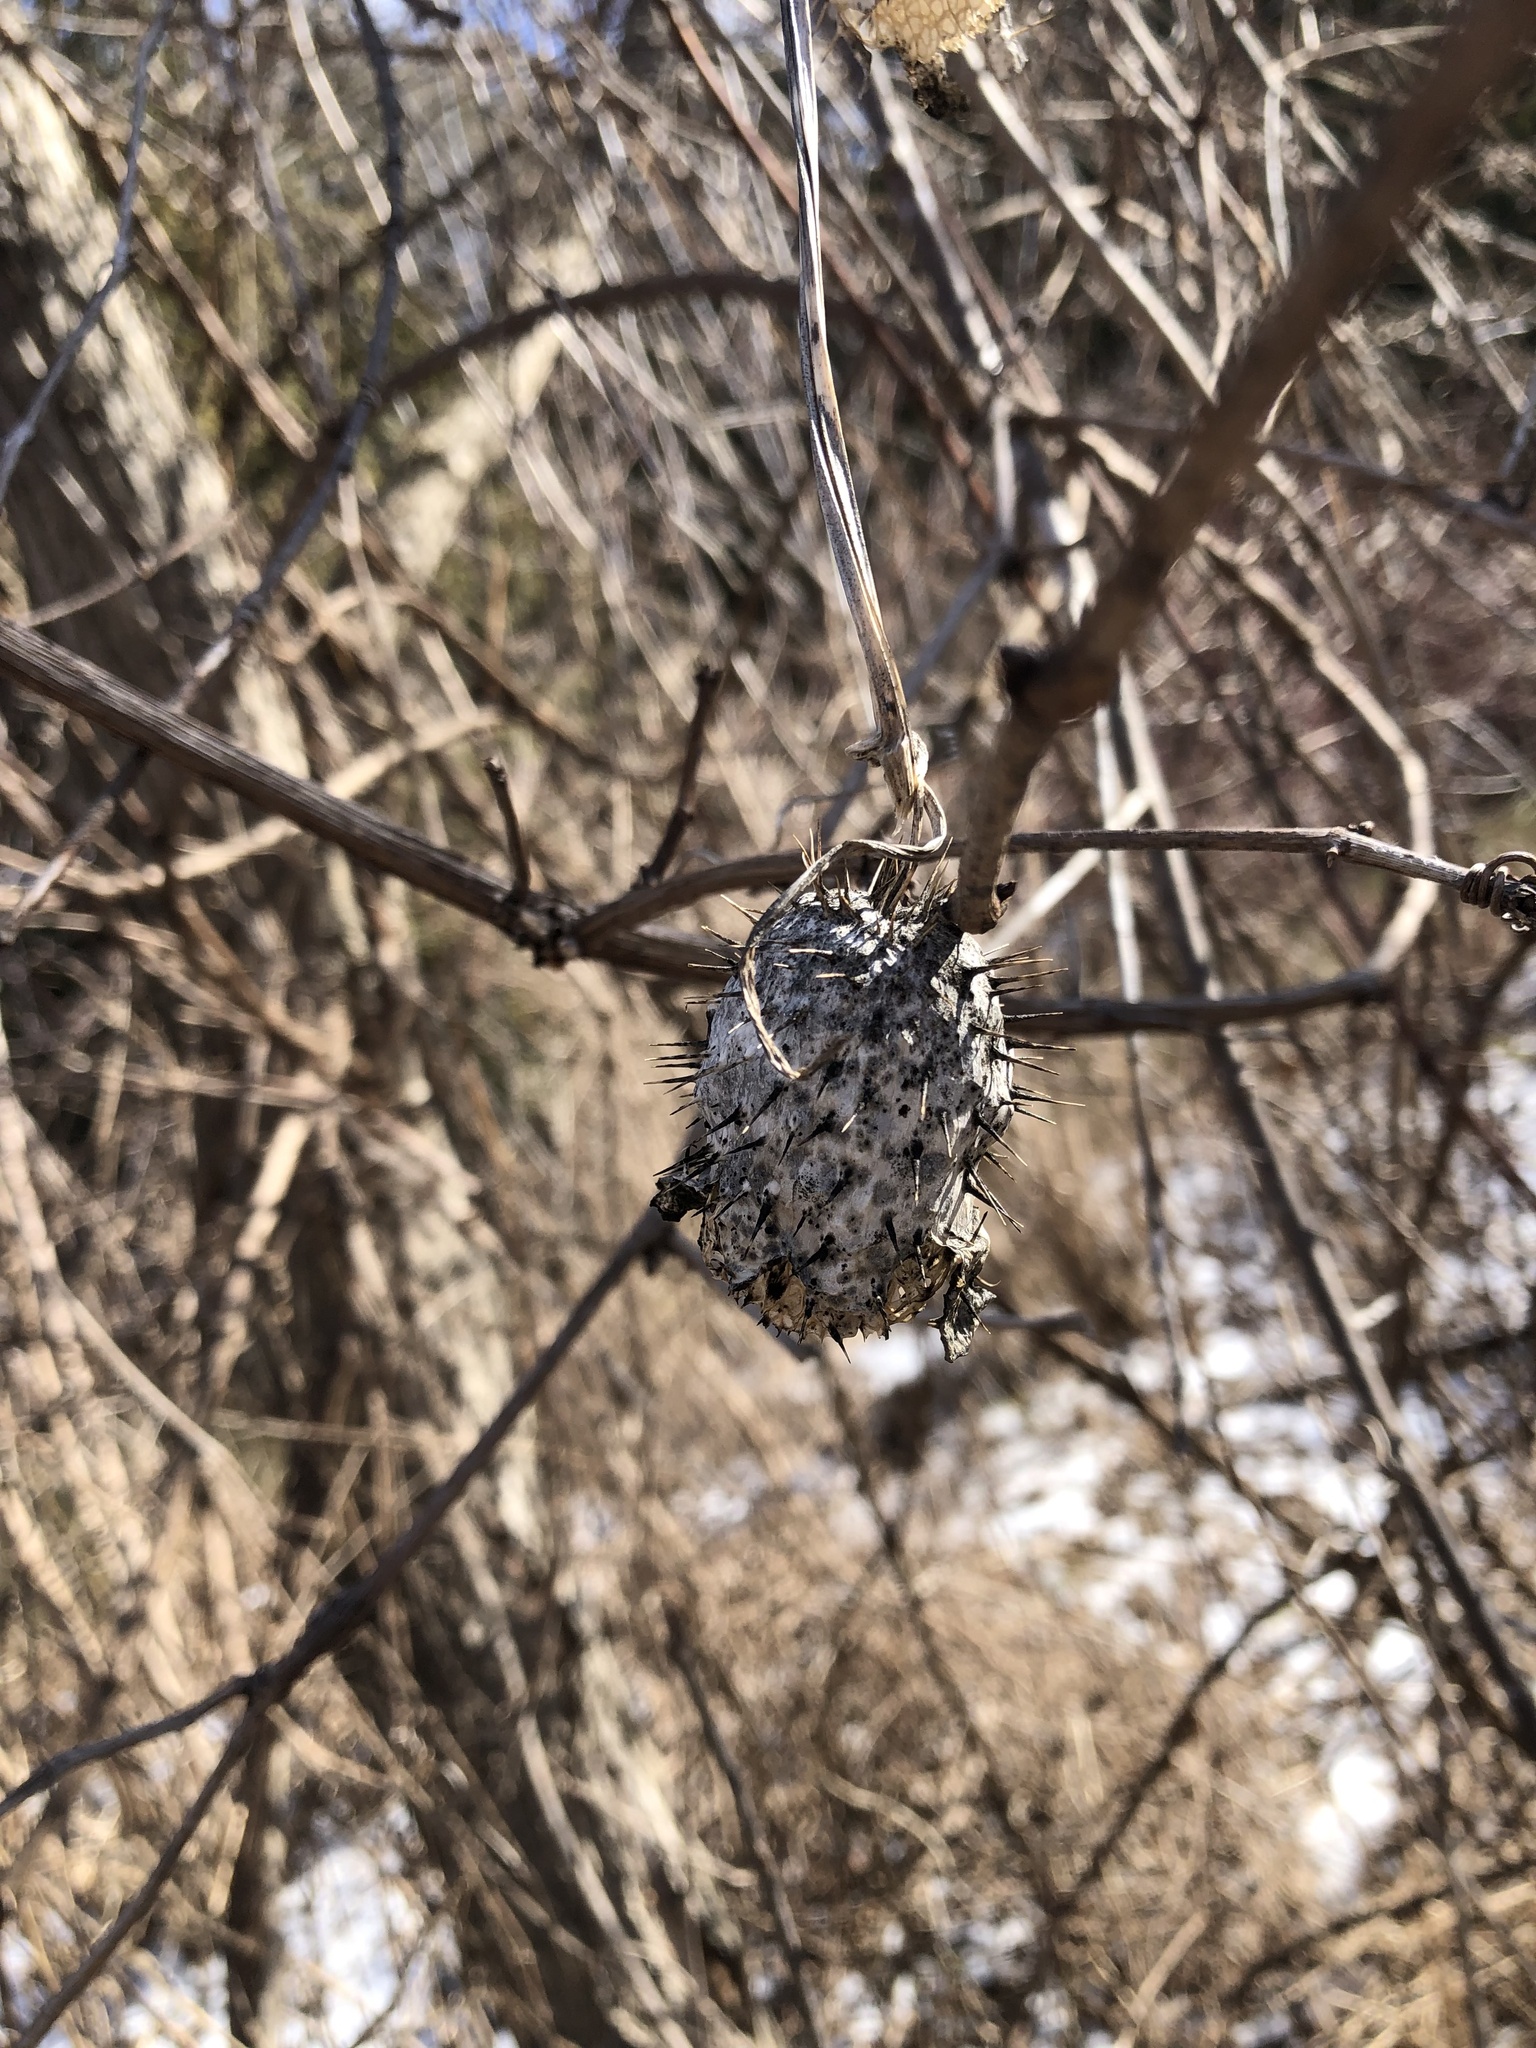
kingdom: Plantae
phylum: Tracheophyta
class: Magnoliopsida
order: Cucurbitales
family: Cucurbitaceae
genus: Echinocystis
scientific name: Echinocystis lobata
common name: Wild cucumber
